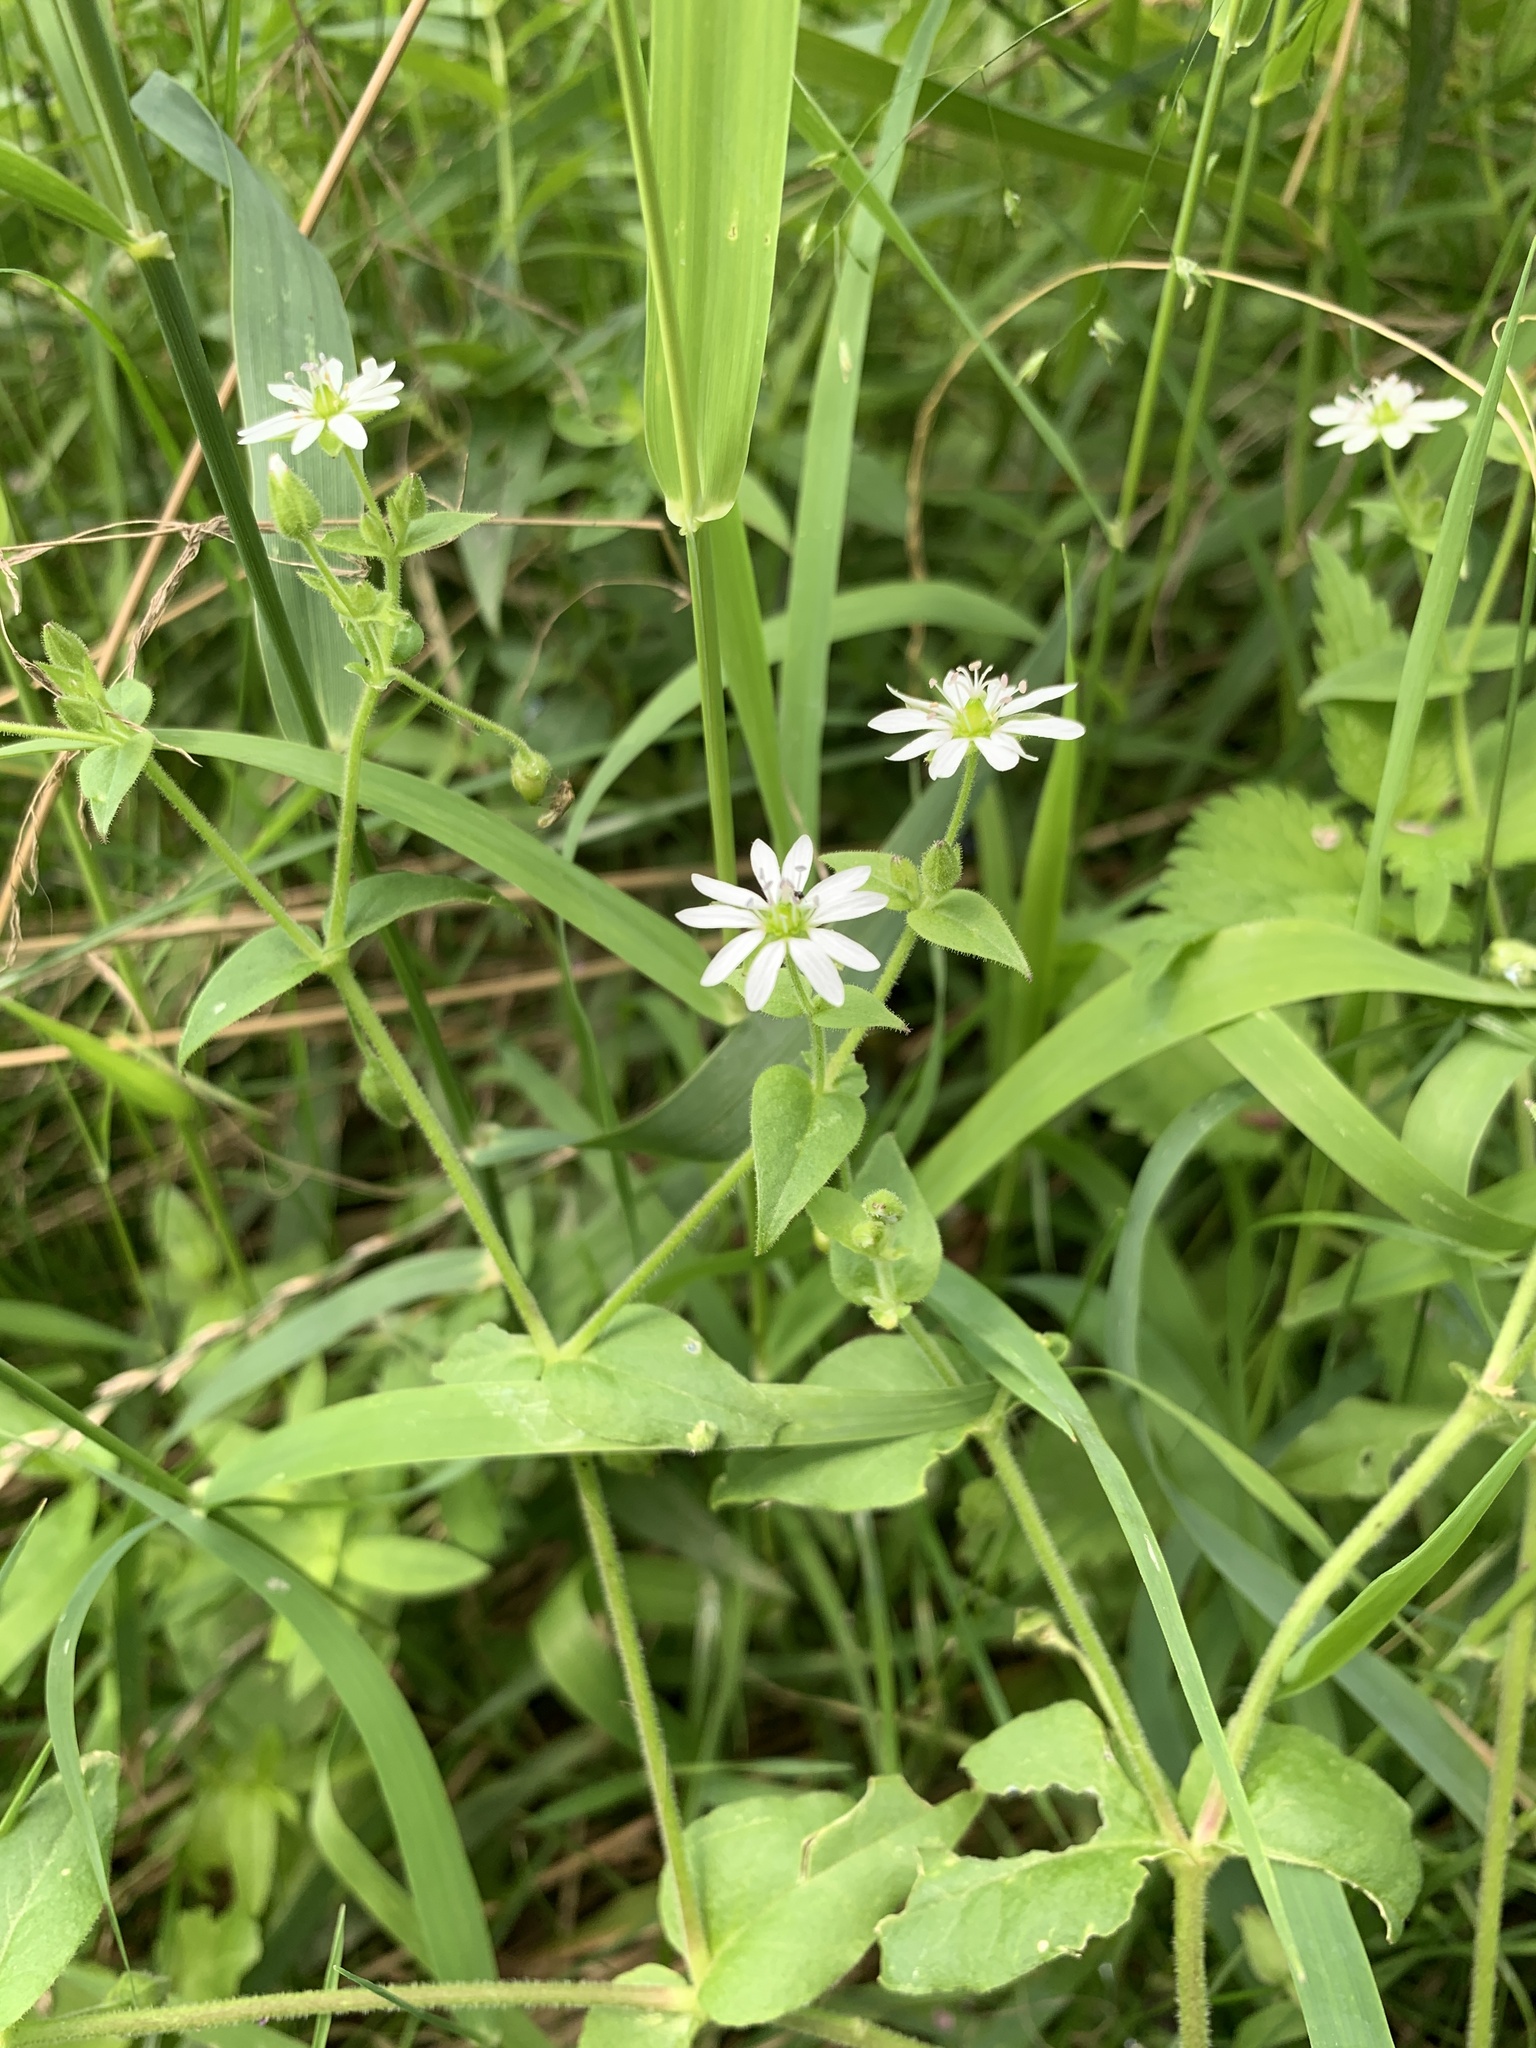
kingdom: Plantae
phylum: Tracheophyta
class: Magnoliopsida
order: Caryophyllales
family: Caryophyllaceae
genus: Stellaria
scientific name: Stellaria aquatica
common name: Water chickweed
